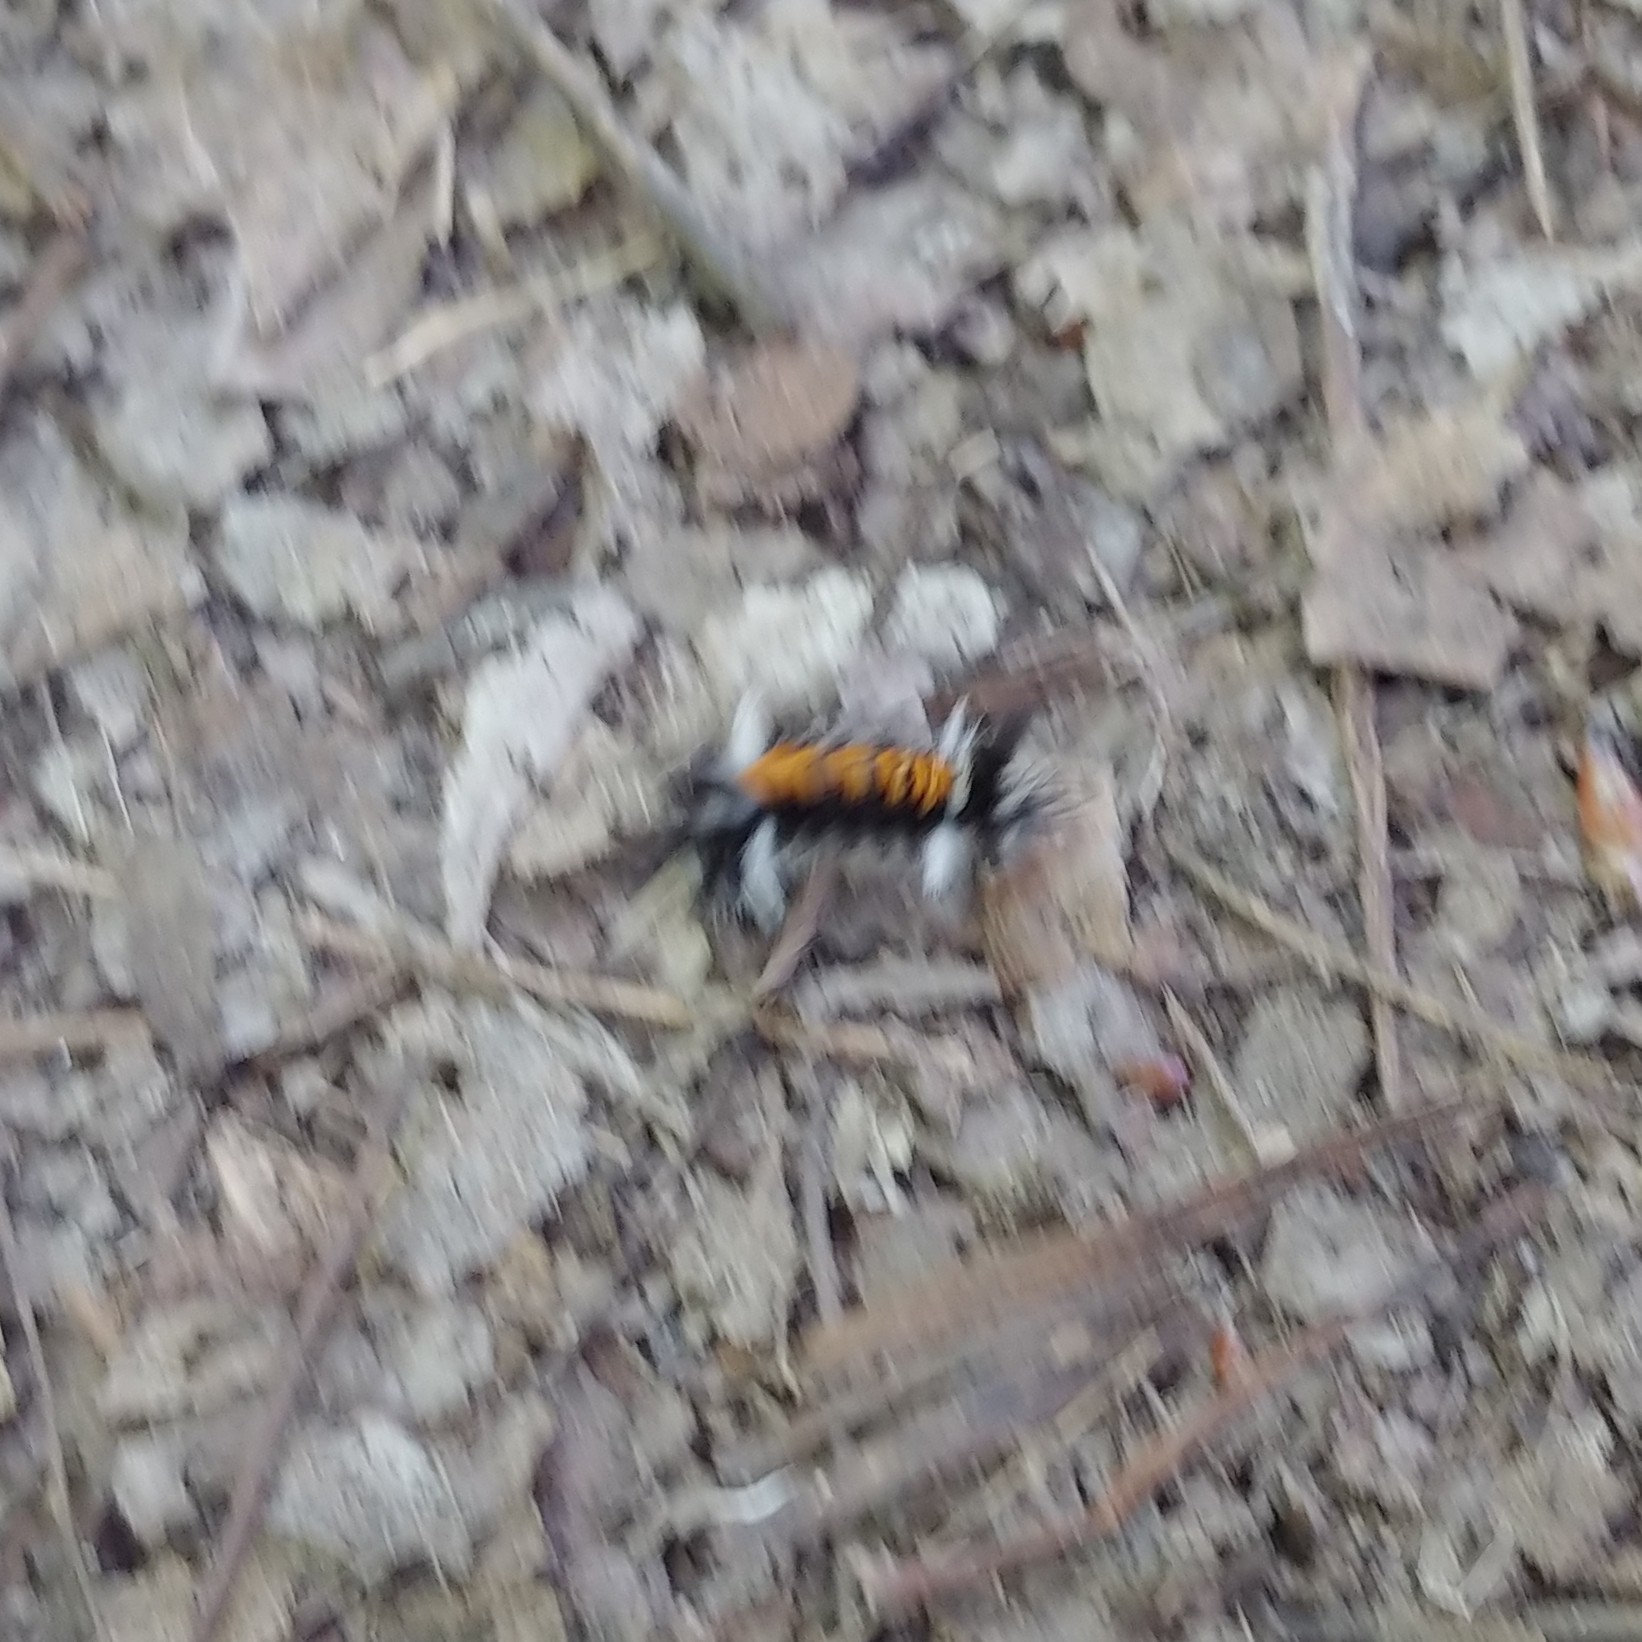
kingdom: Animalia
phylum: Arthropoda
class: Insecta
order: Lepidoptera
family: Erebidae
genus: Euchaetes
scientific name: Euchaetes egle
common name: Milkweed tussock moth
